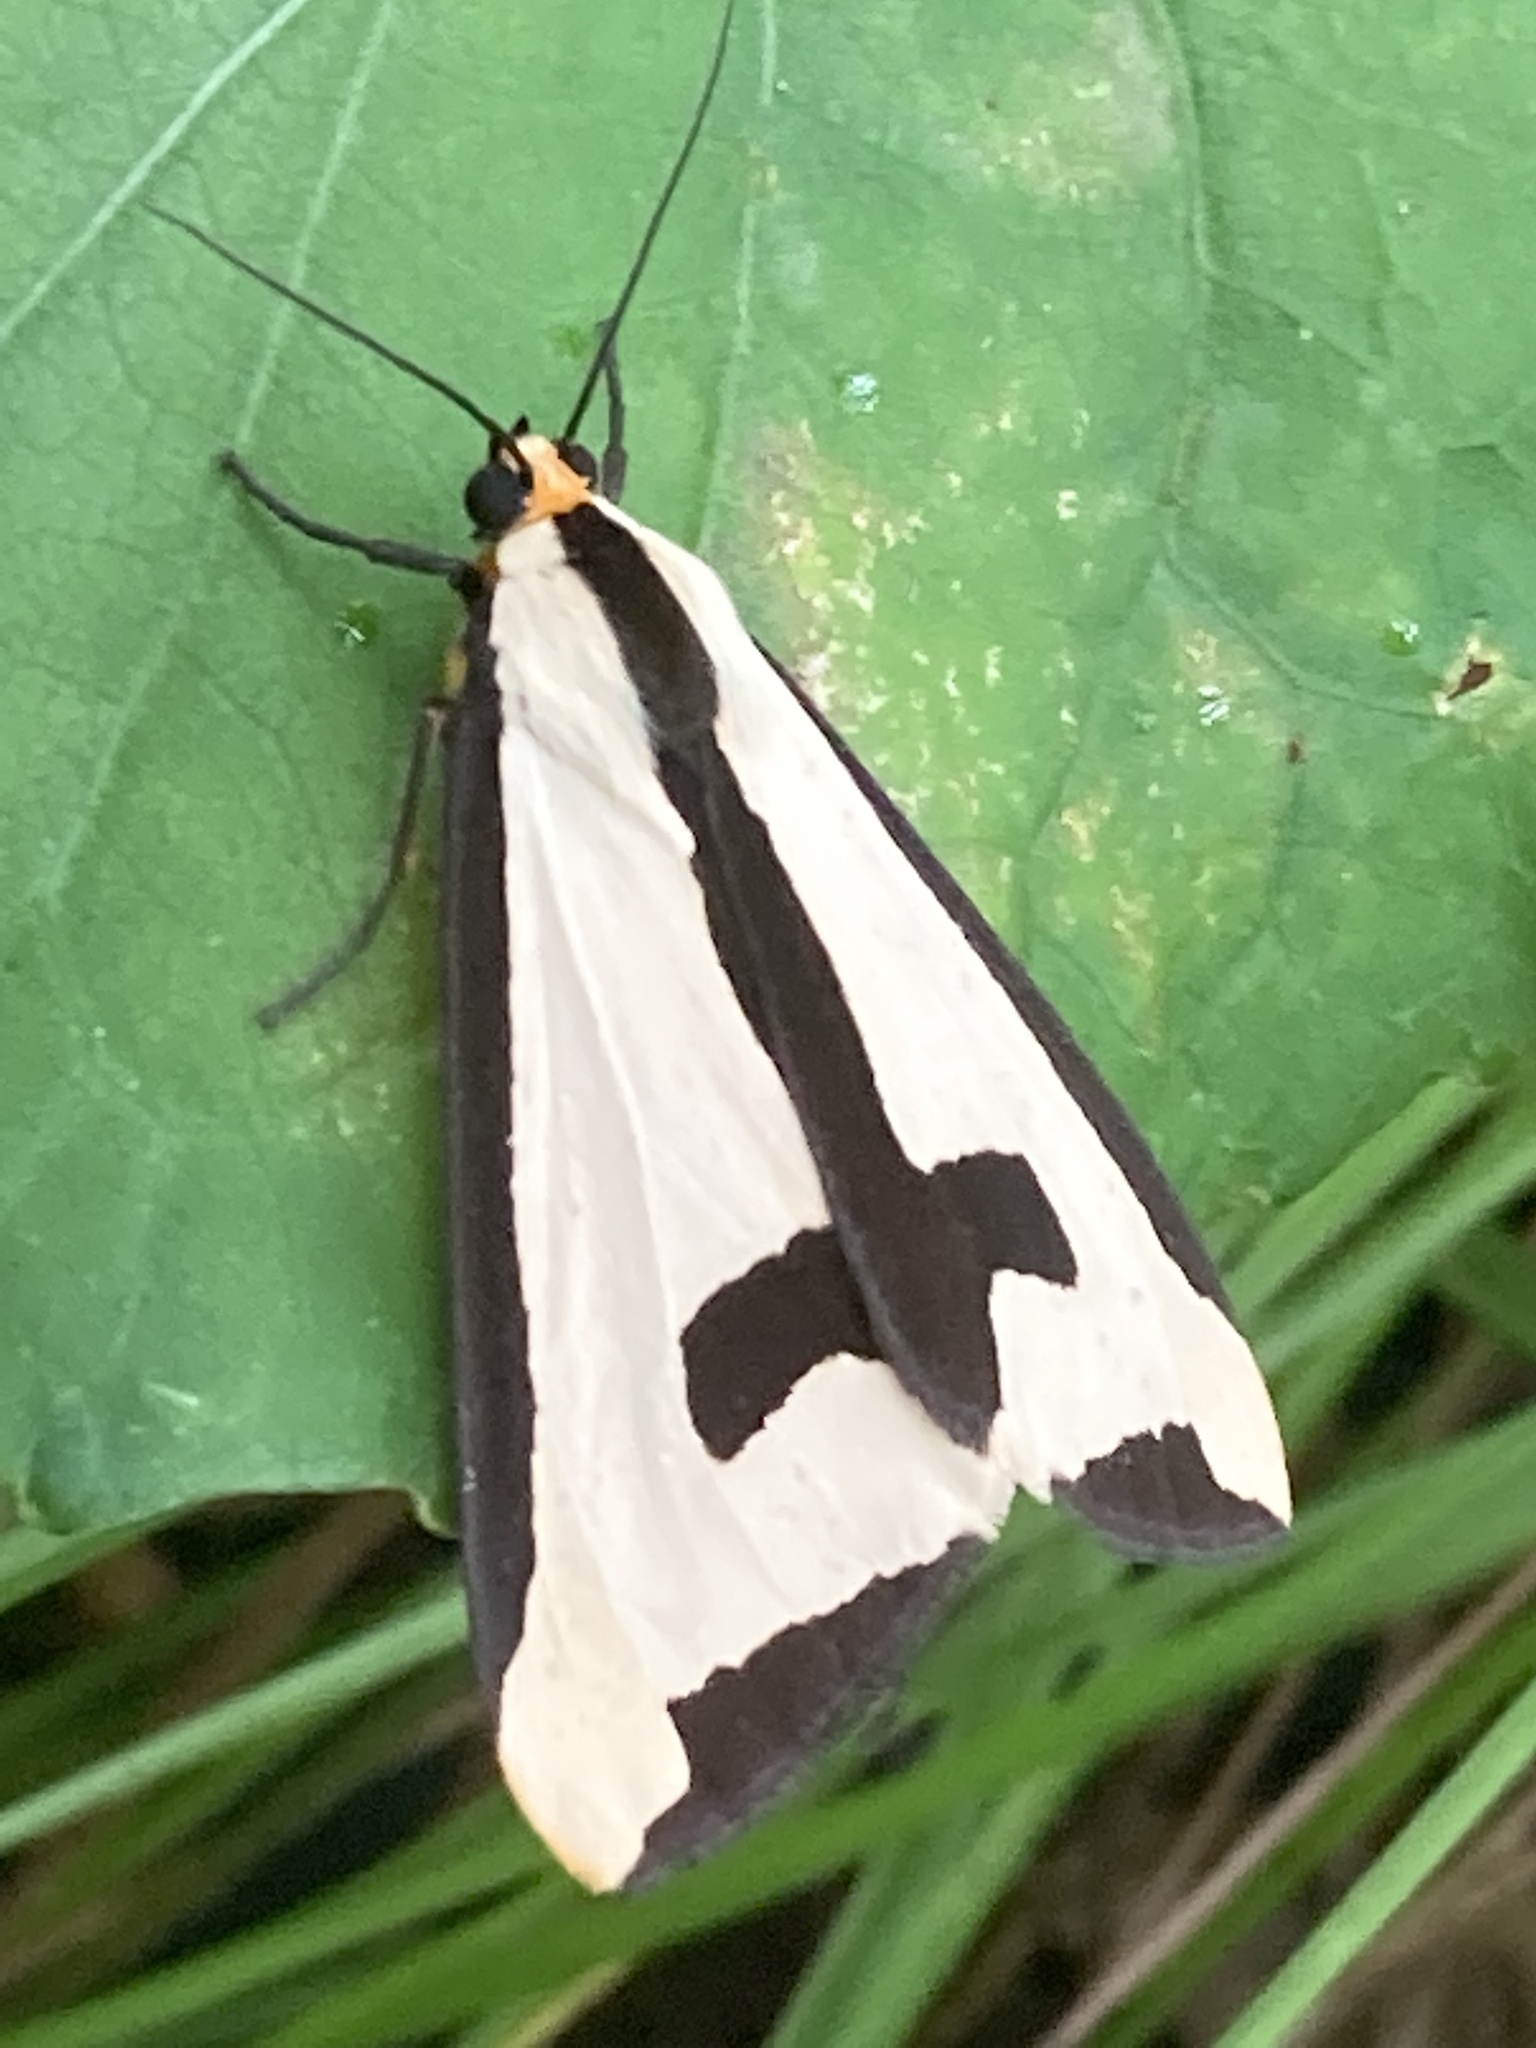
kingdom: Animalia
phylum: Arthropoda
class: Insecta
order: Lepidoptera
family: Erebidae
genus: Haploa
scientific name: Haploa clymene
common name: Clymene moth
